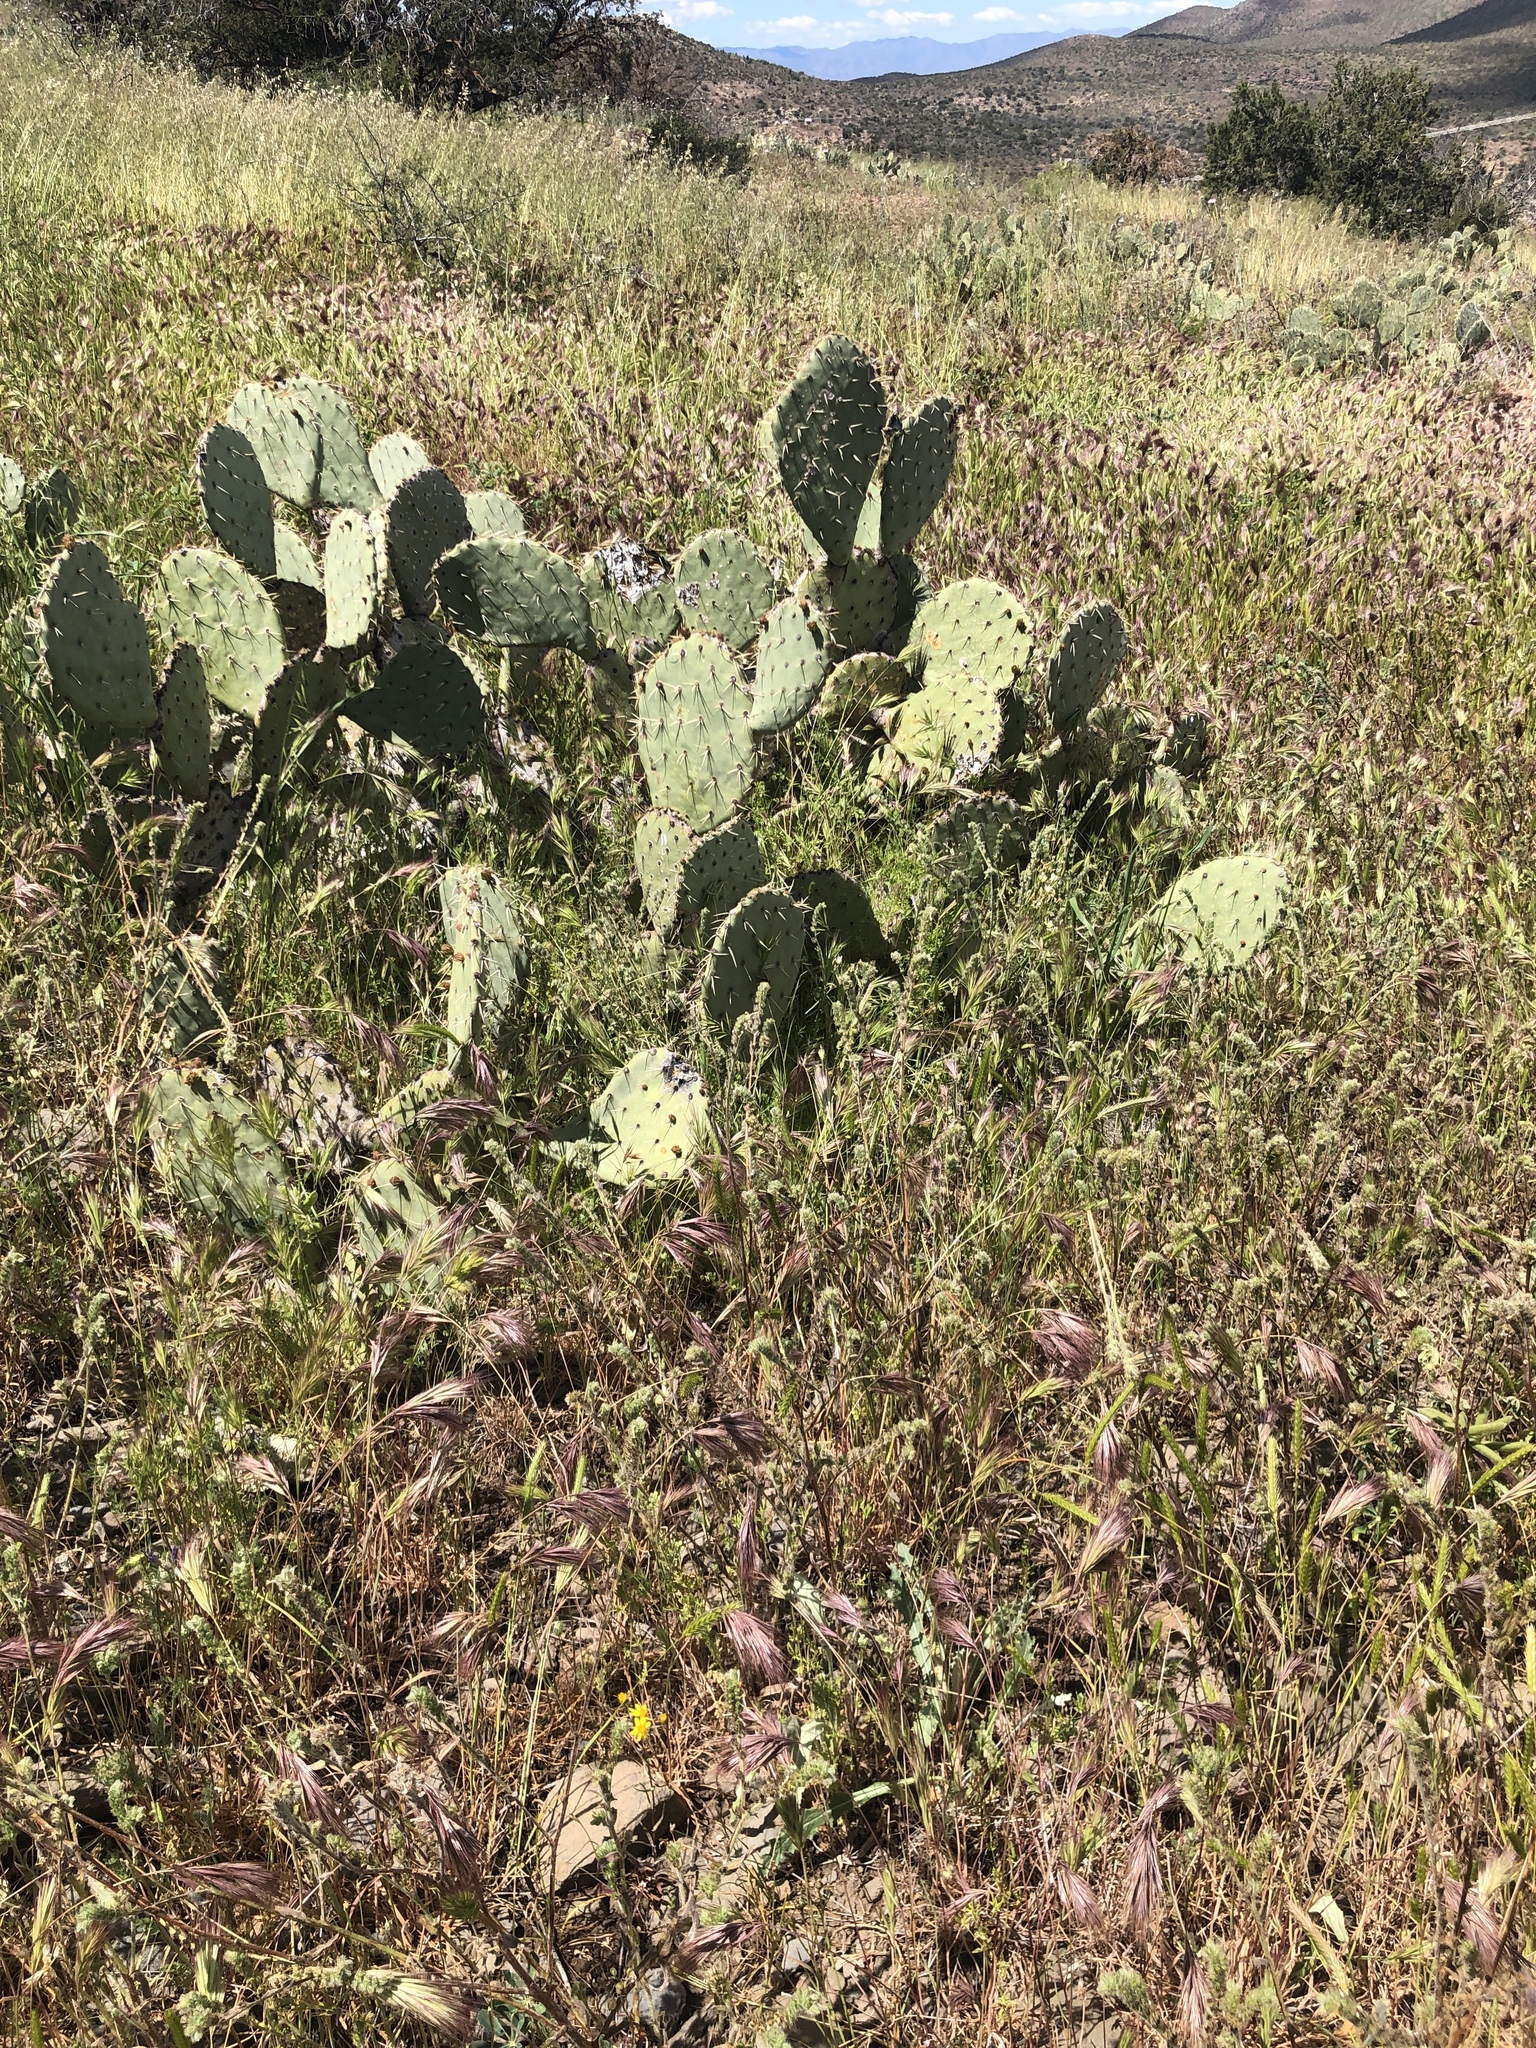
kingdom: Plantae
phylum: Tracheophyta
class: Magnoliopsida
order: Caryophyllales
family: Cactaceae
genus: Opuntia
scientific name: Opuntia engelmannii
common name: Cactus-apple
